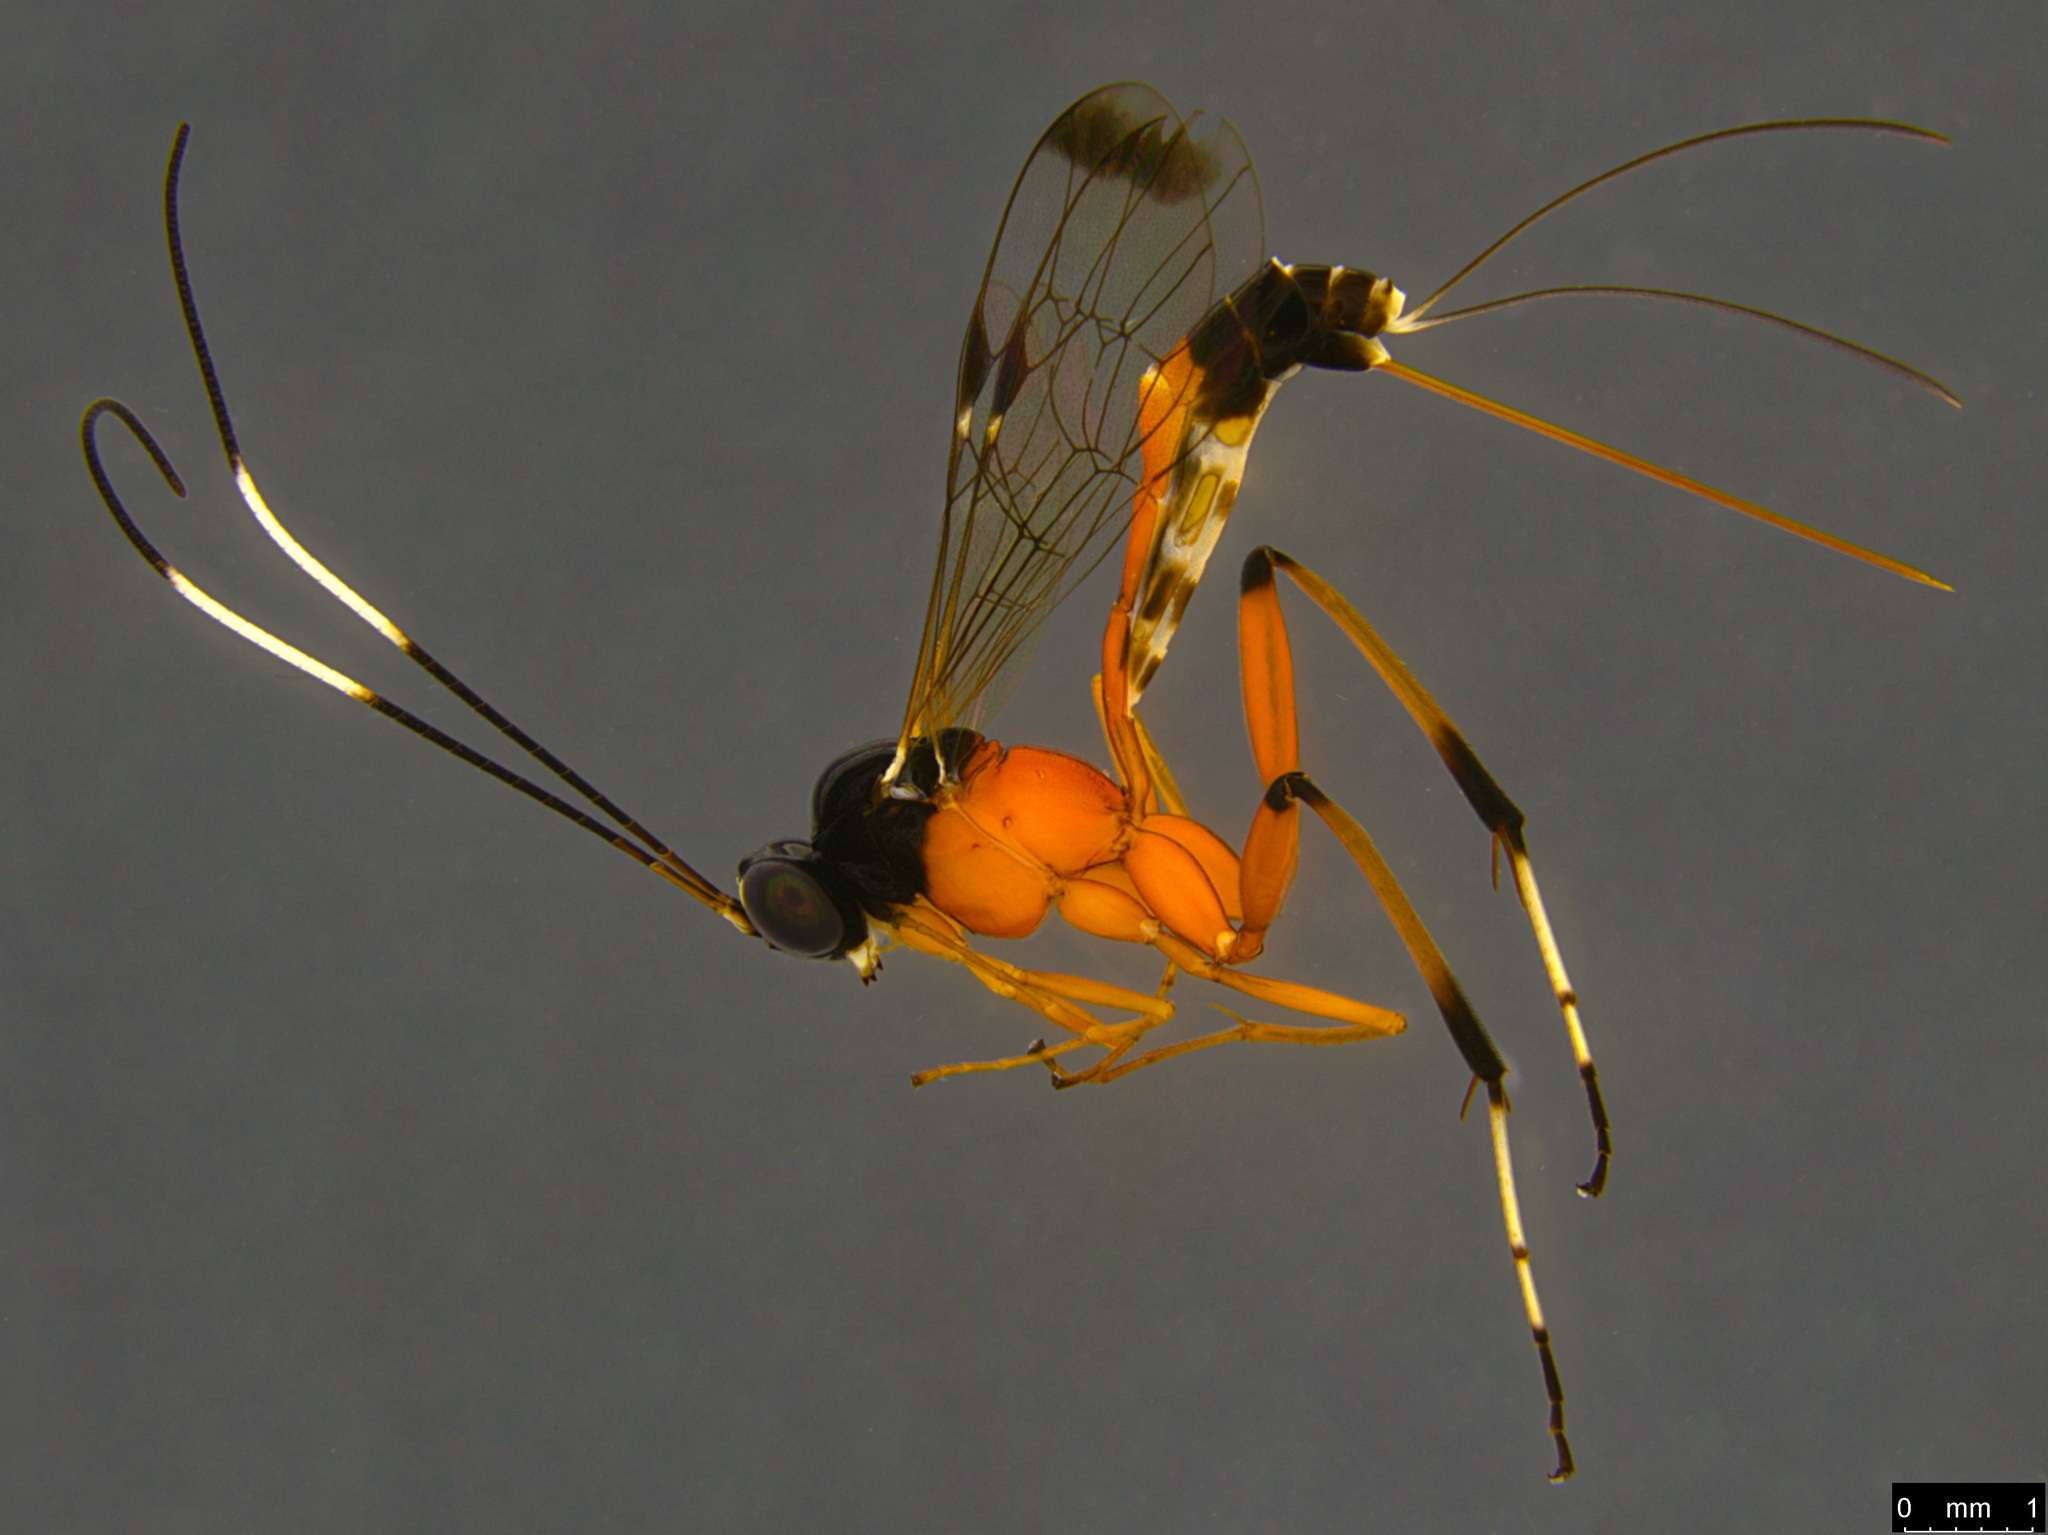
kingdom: Animalia
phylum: Arthropoda
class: Insecta
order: Hymenoptera
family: Ichneumonidae
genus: Leptobatopsis
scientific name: Leptobatopsis mesominiata
